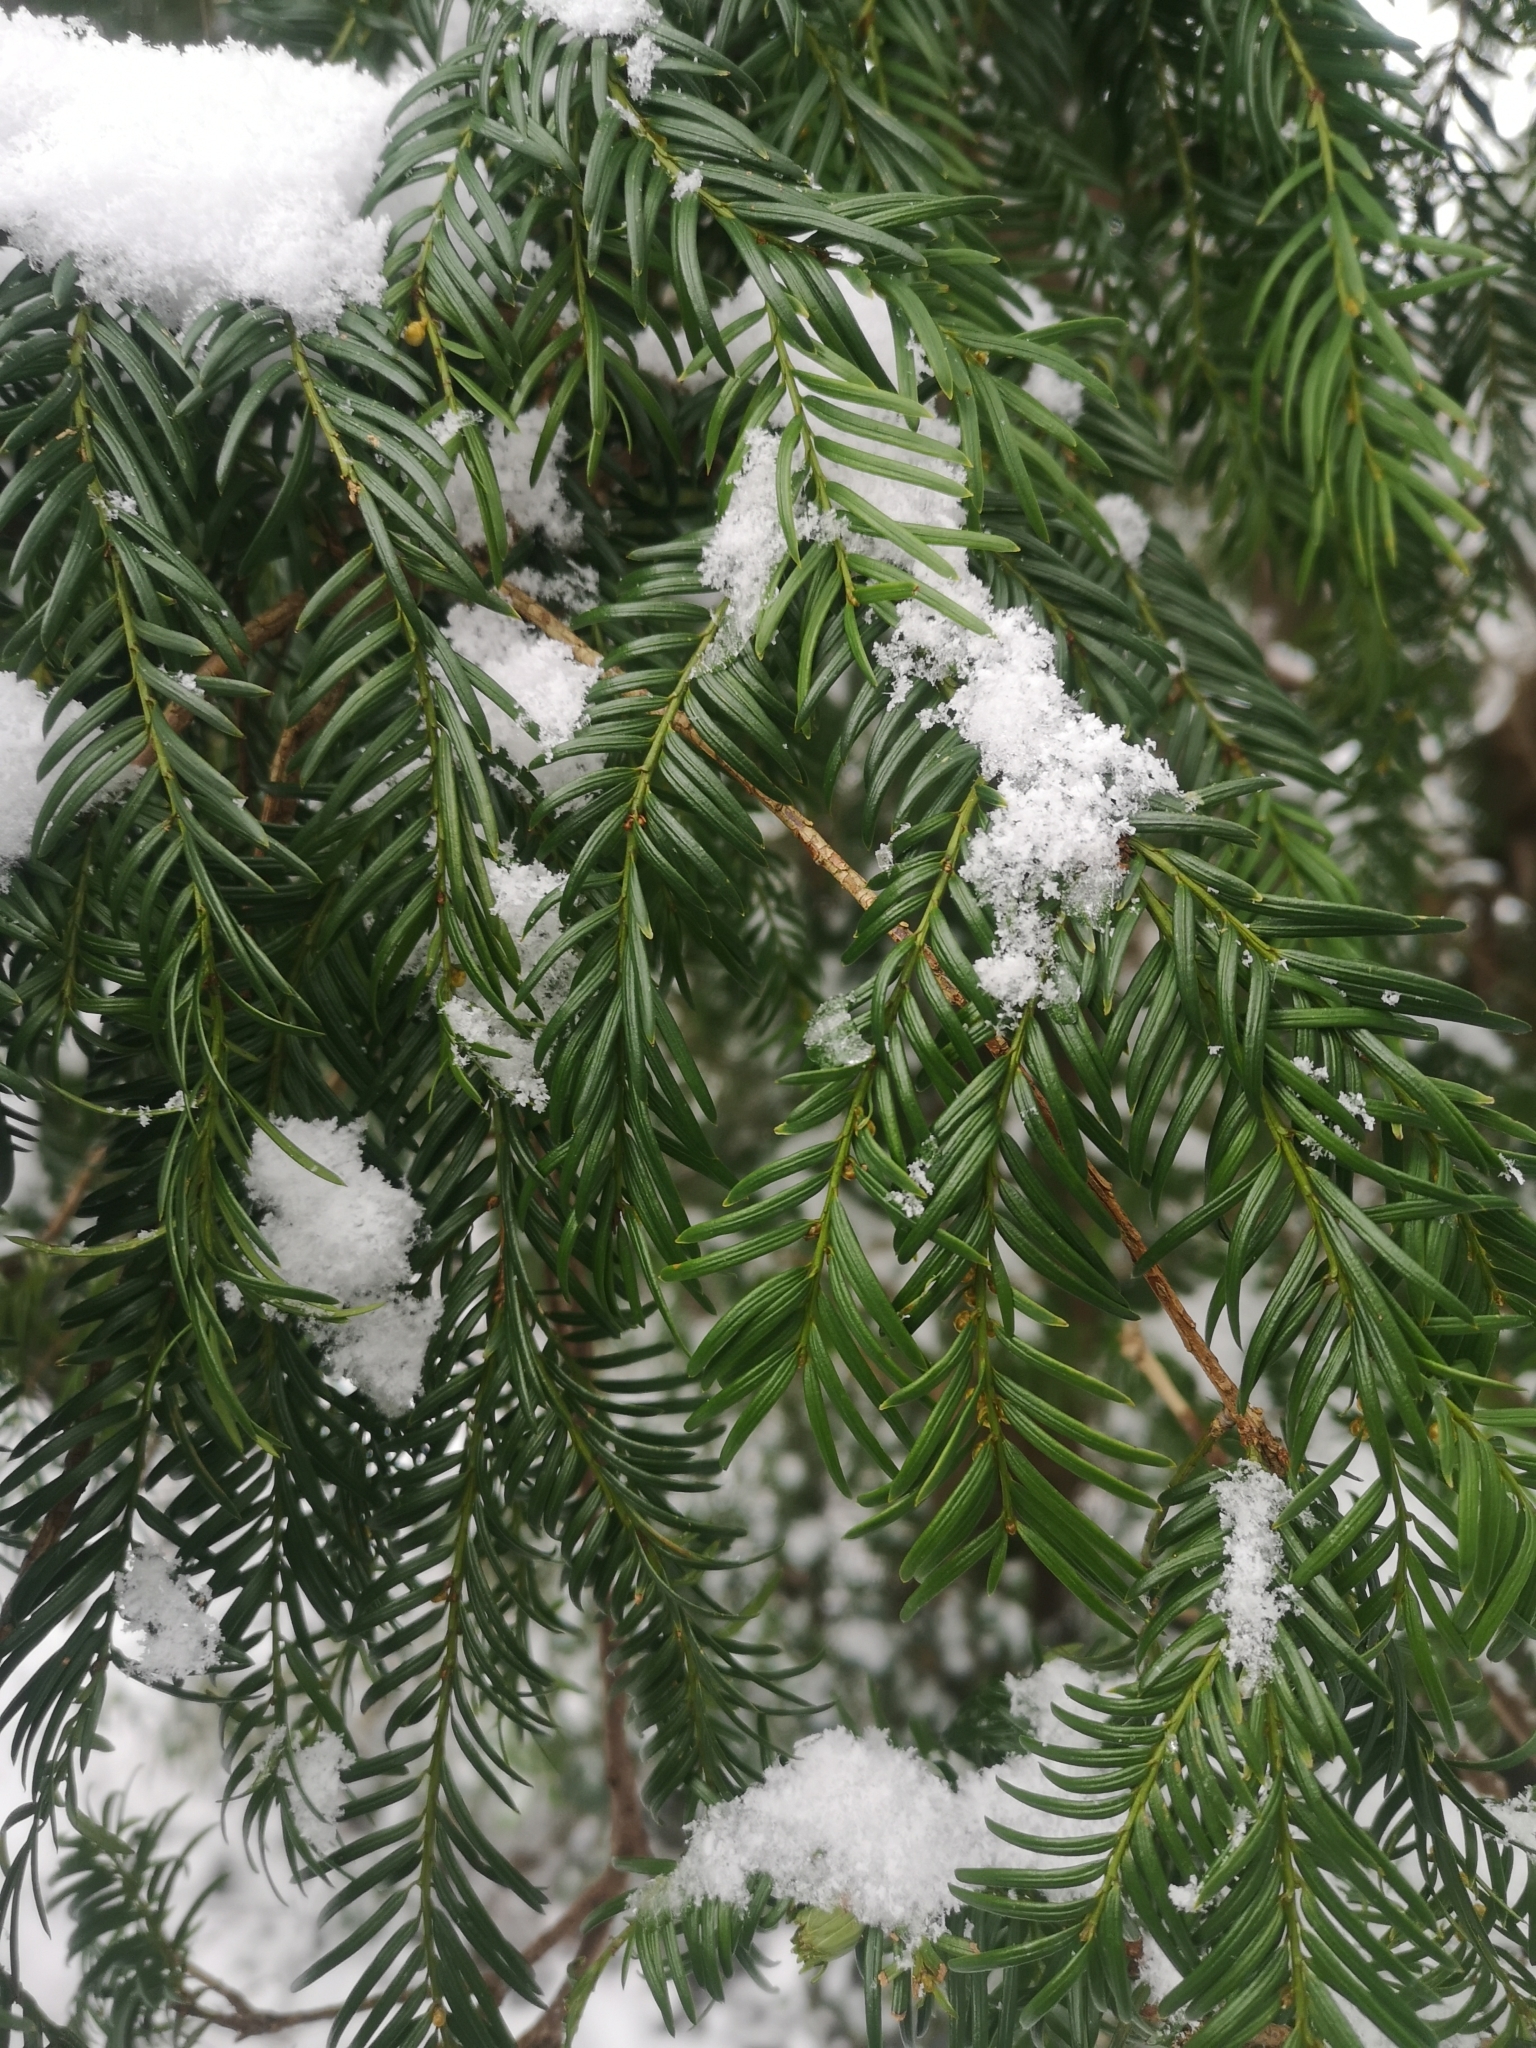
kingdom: Plantae
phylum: Tracheophyta
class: Pinopsida
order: Pinales
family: Taxaceae
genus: Taxus
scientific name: Taxus baccata
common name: Yew
